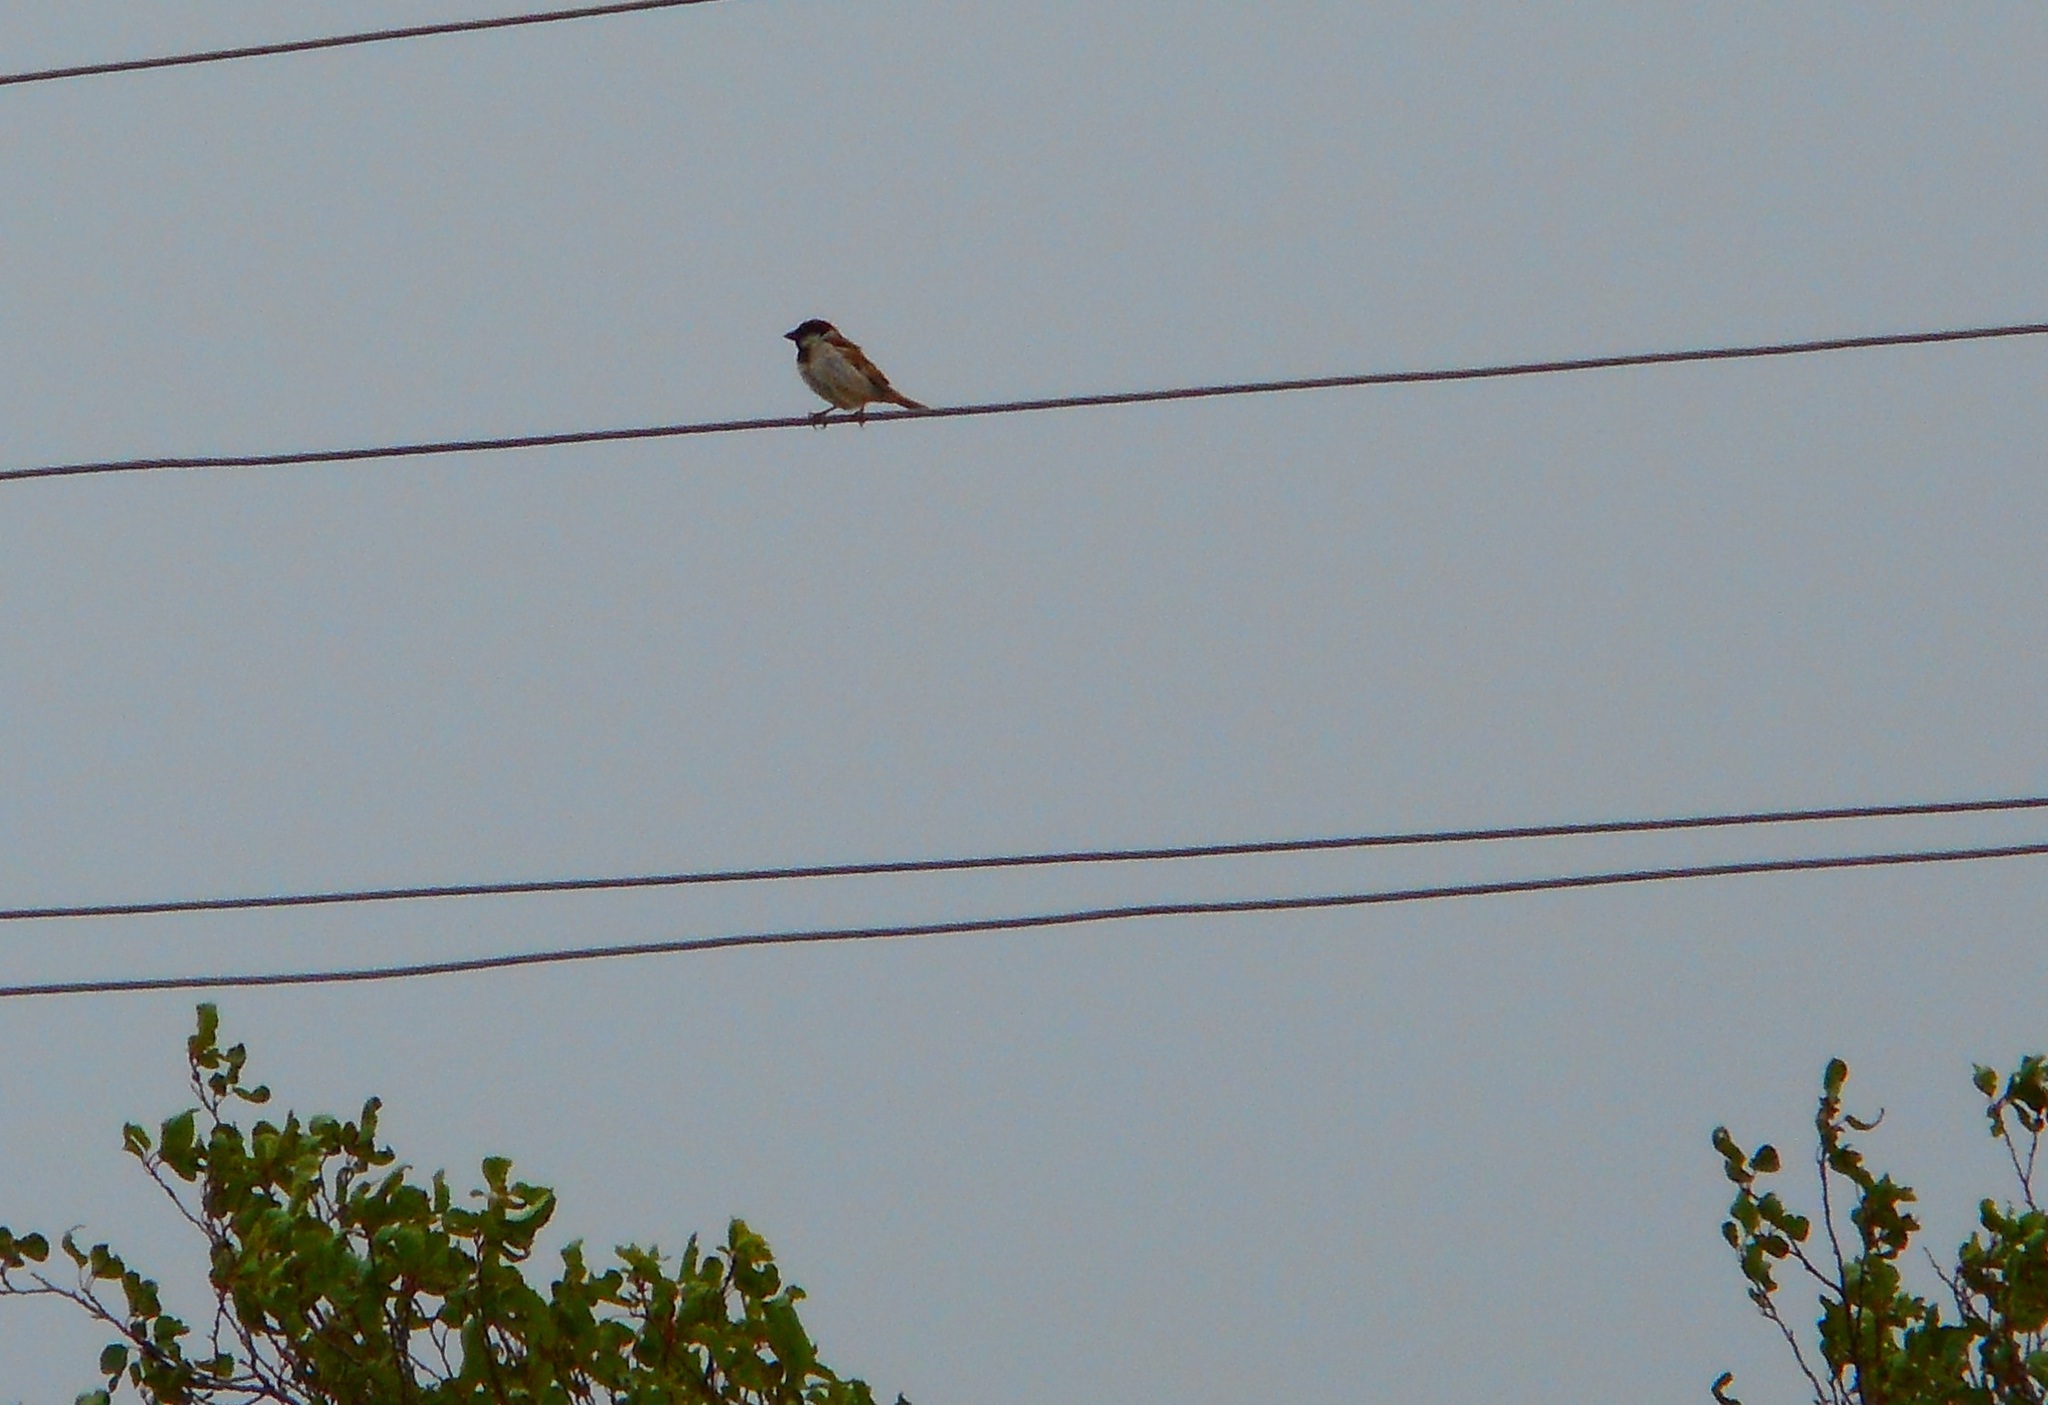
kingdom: Animalia
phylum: Chordata
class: Aves
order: Passeriformes
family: Passeridae
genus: Passer
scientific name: Passer domesticus
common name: House sparrow
